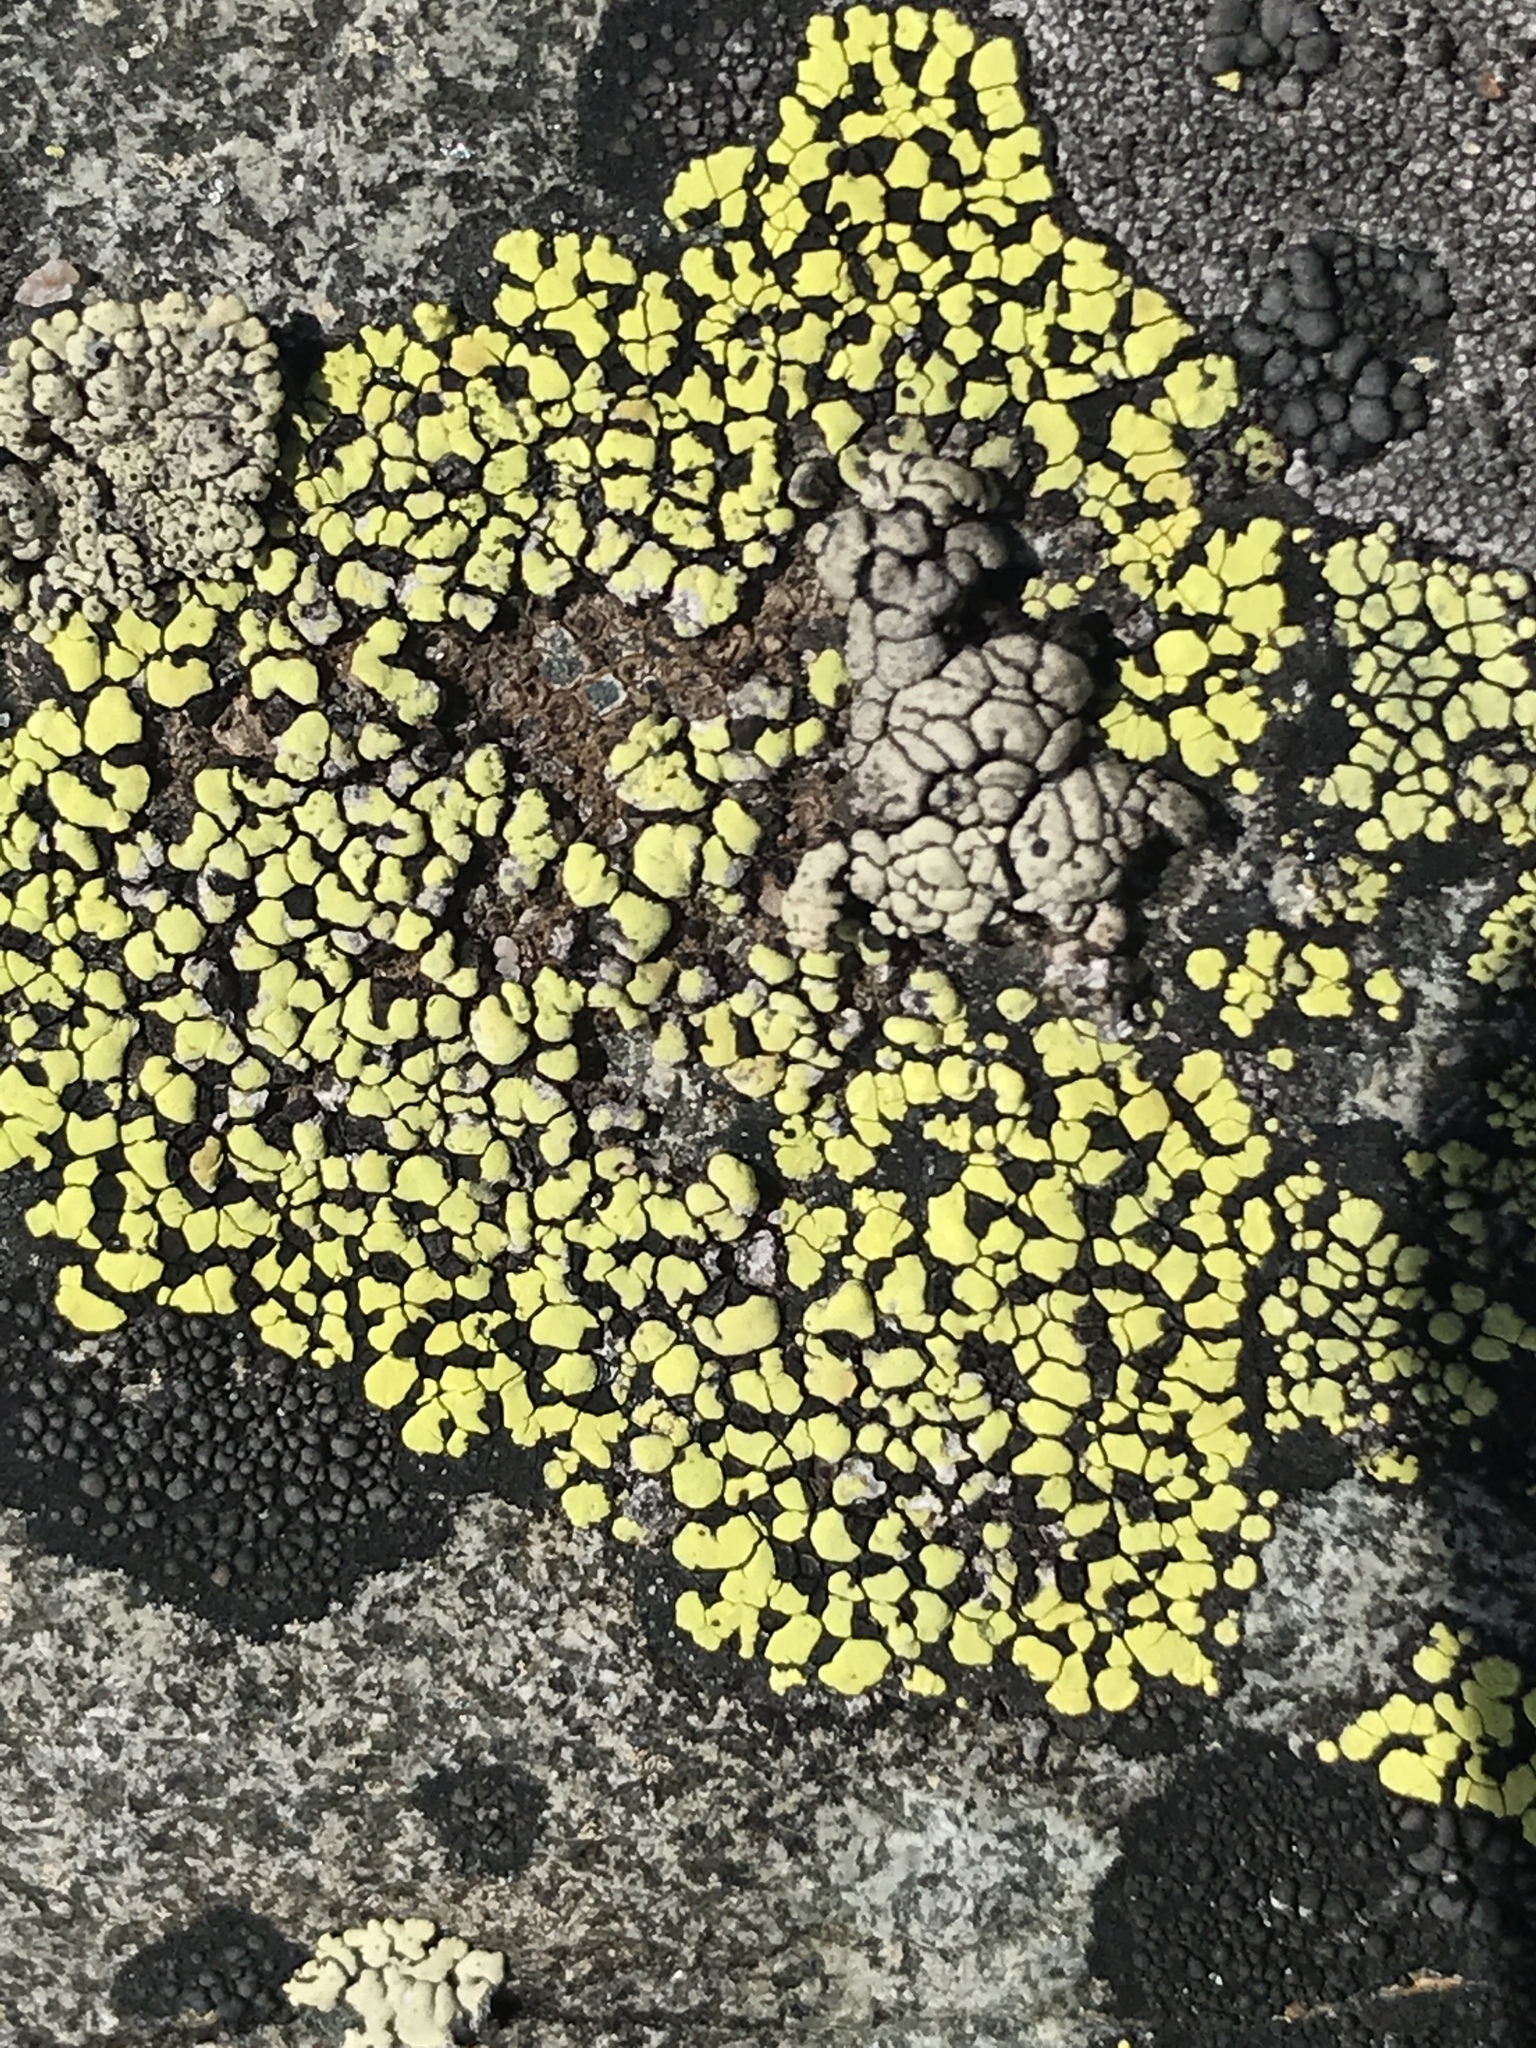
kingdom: Fungi
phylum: Ascomycota
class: Lecanoromycetes
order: Rhizocarpales
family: Rhizocarpaceae
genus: Rhizocarpon
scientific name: Rhizocarpon geographicum
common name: Yellow map lichen
